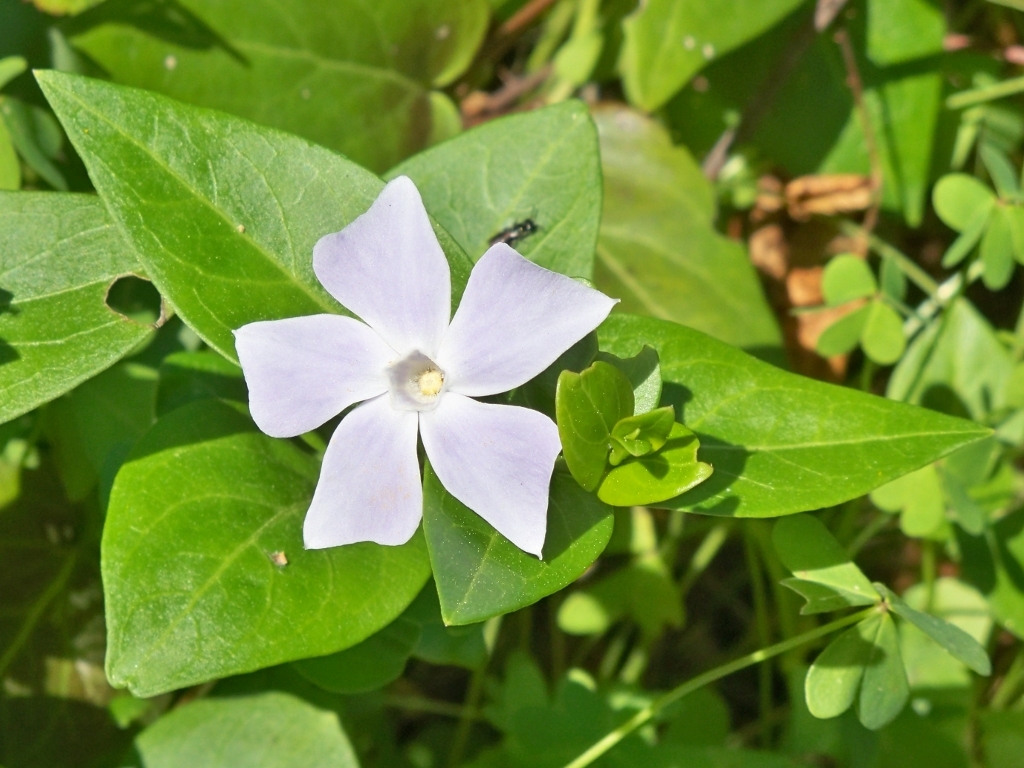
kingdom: Plantae
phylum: Tracheophyta
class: Magnoliopsida
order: Gentianales
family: Apocynaceae
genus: Vinca
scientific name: Vinca difformis
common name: Intermediate periwinkle
